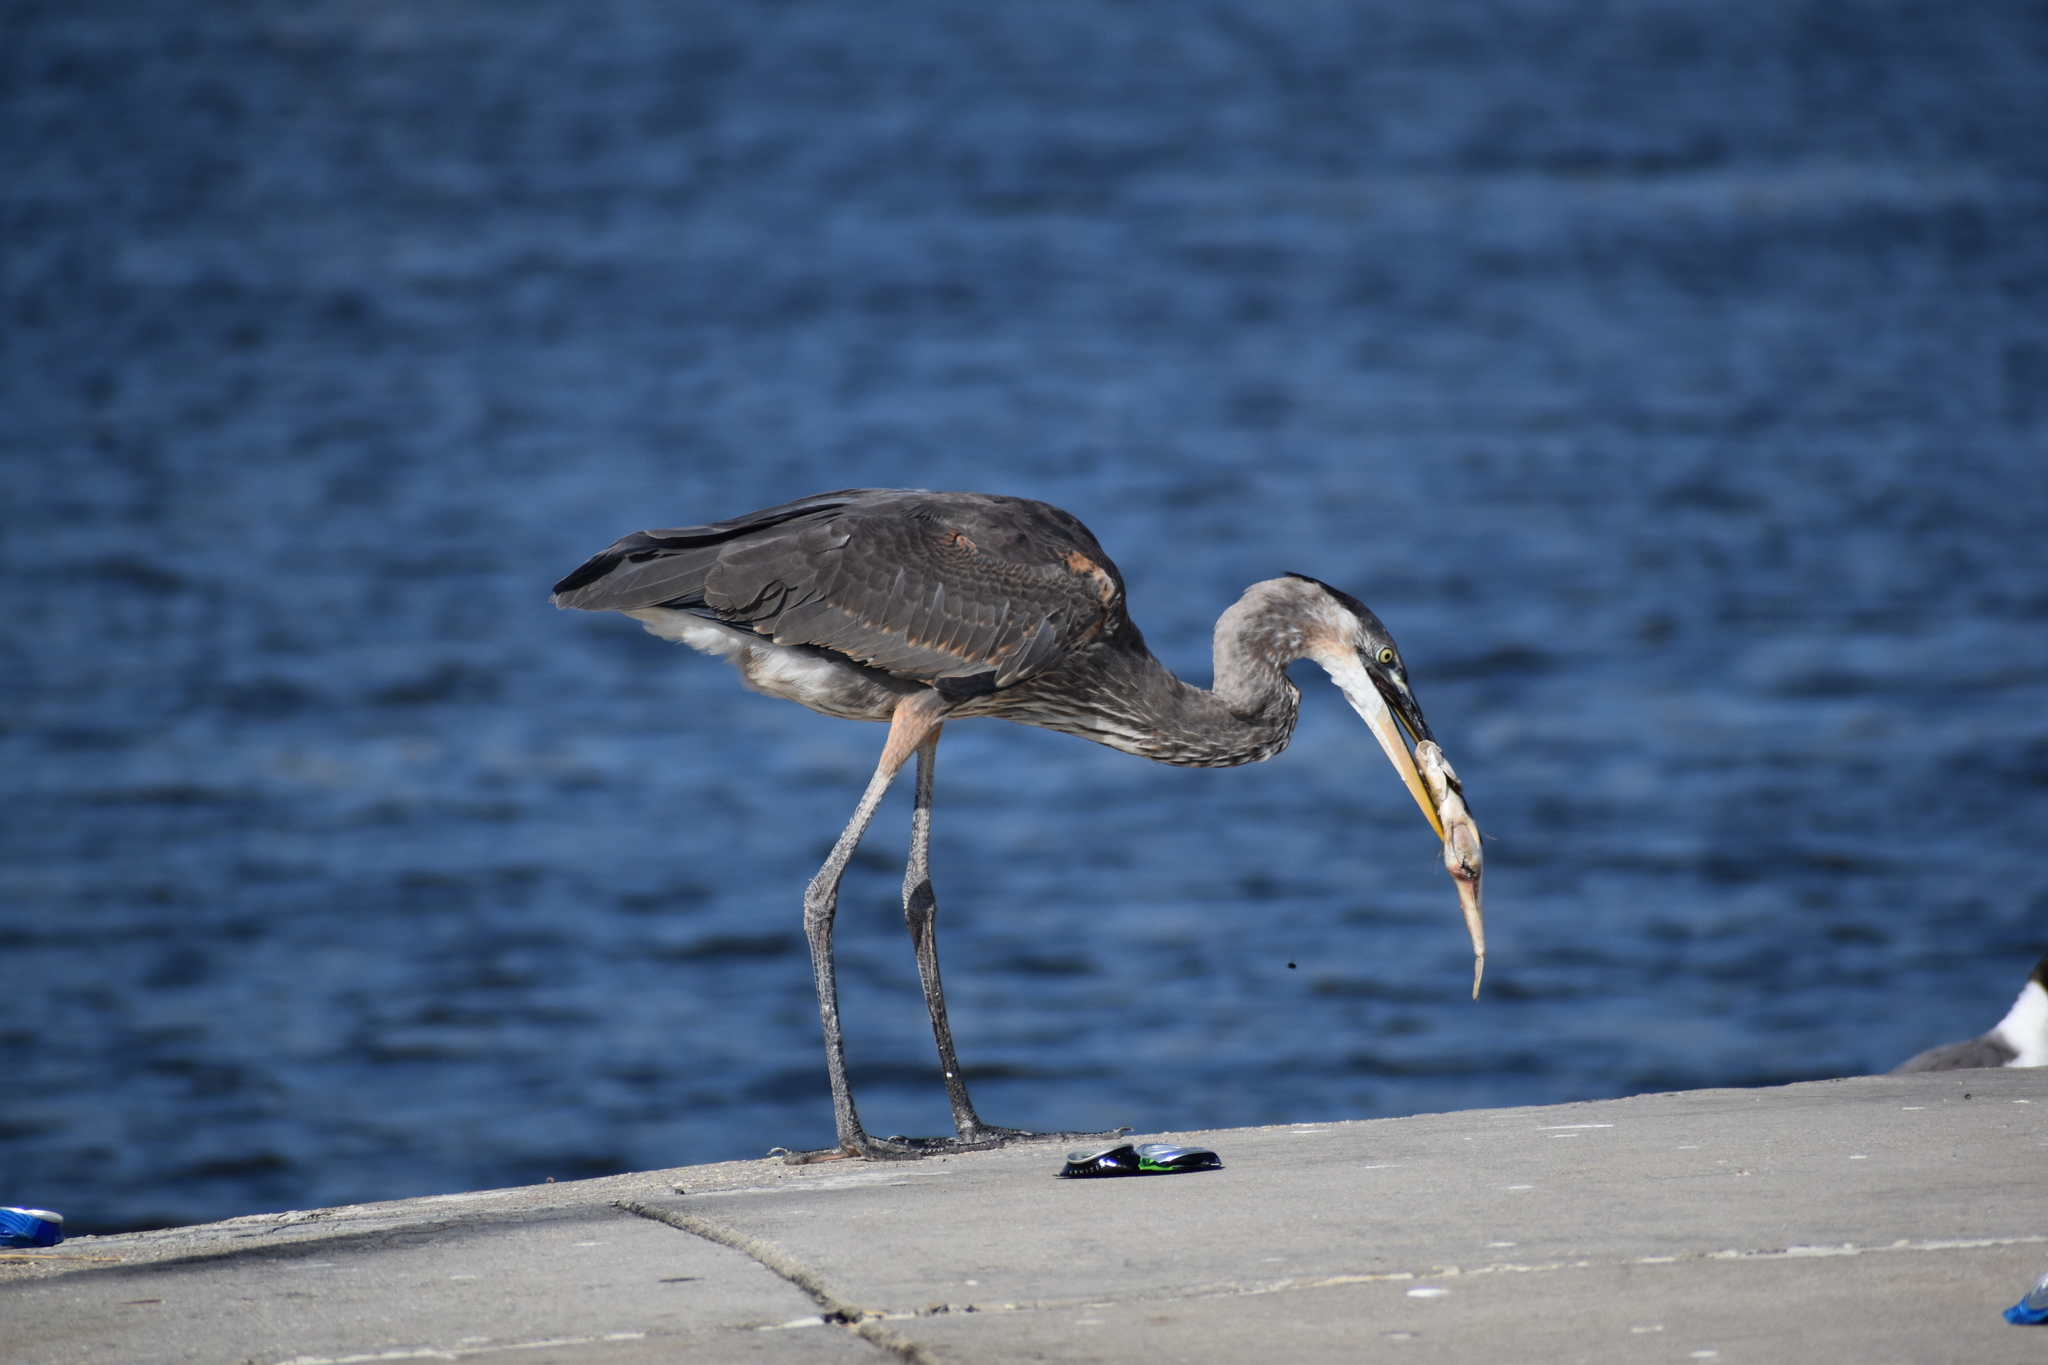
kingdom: Animalia
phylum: Chordata
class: Aves
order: Pelecaniformes
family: Ardeidae
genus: Ardea
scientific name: Ardea herodias
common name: Great blue heron
